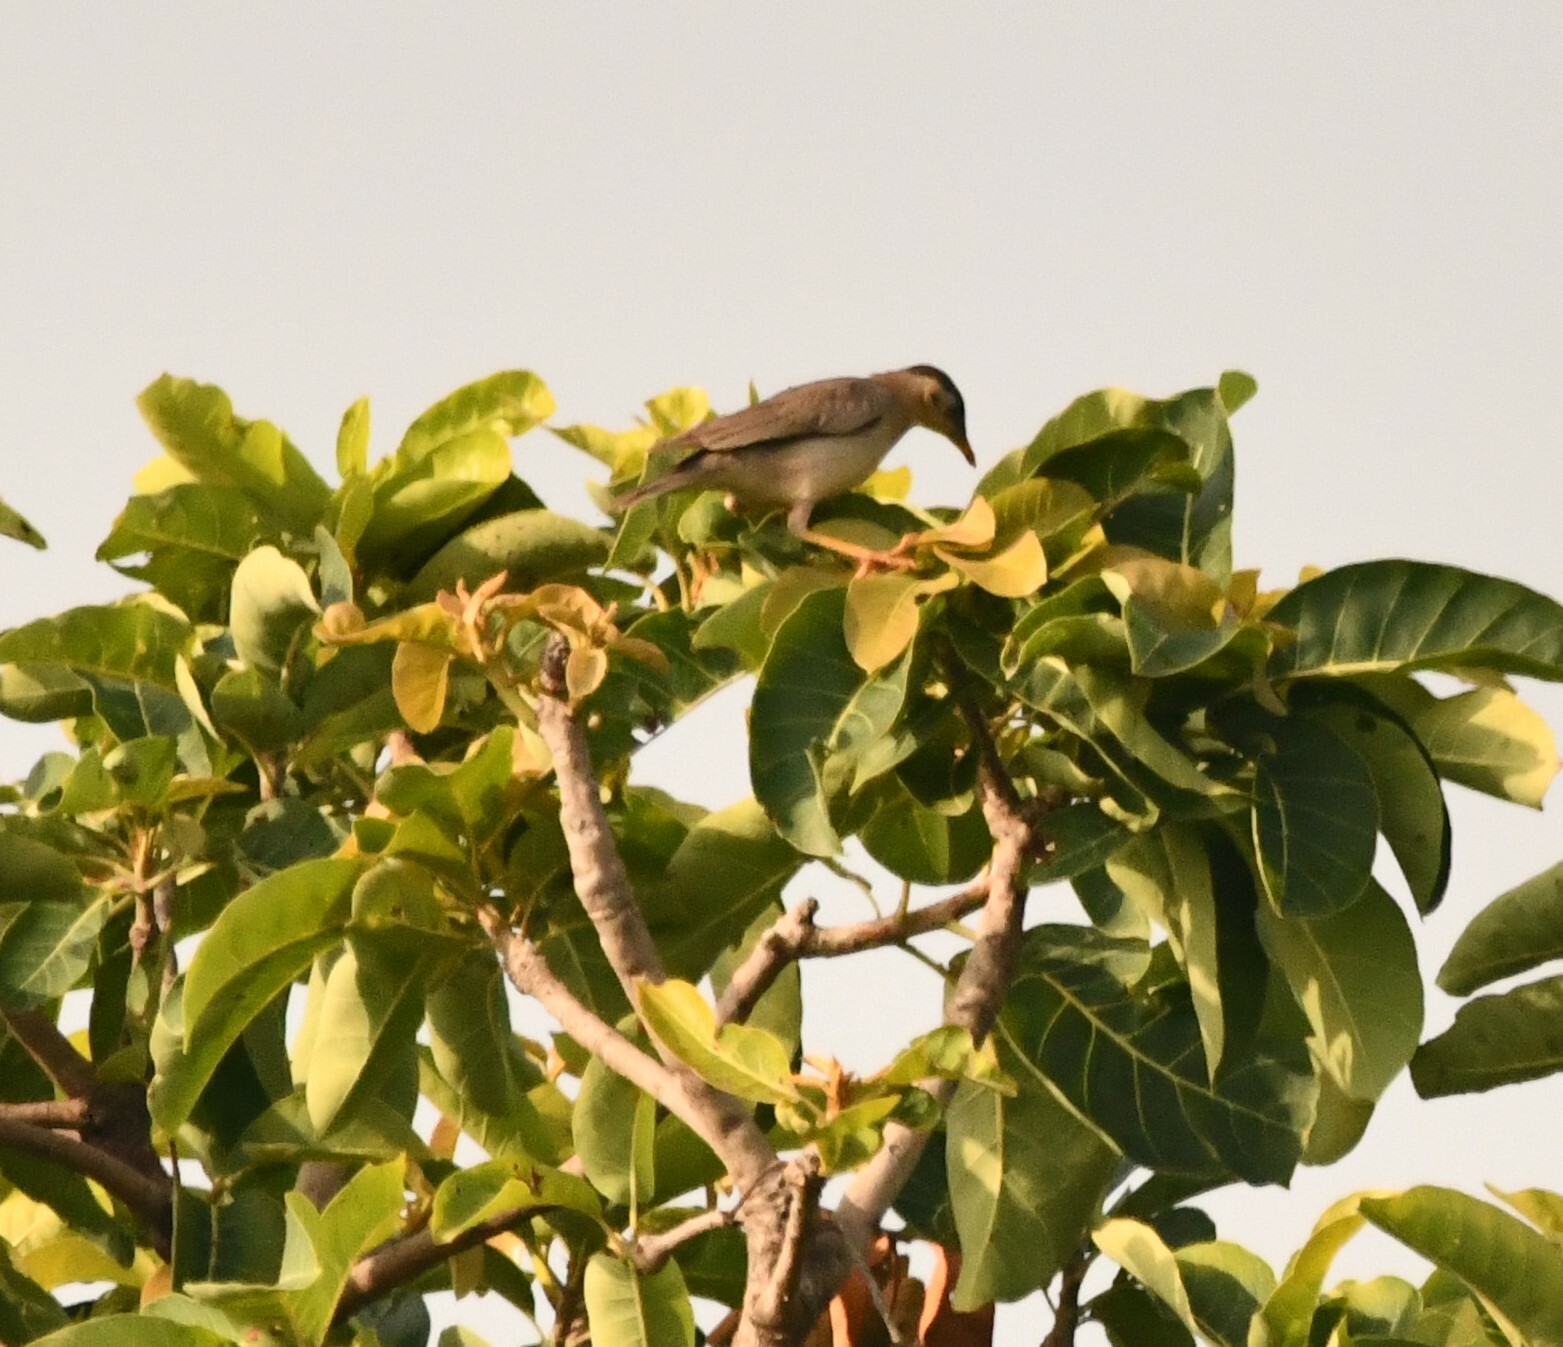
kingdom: Animalia
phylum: Chordata
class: Aves
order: Passeriformes
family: Sturnidae
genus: Sturnia
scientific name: Sturnia pagodarum
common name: Brahminy starling
